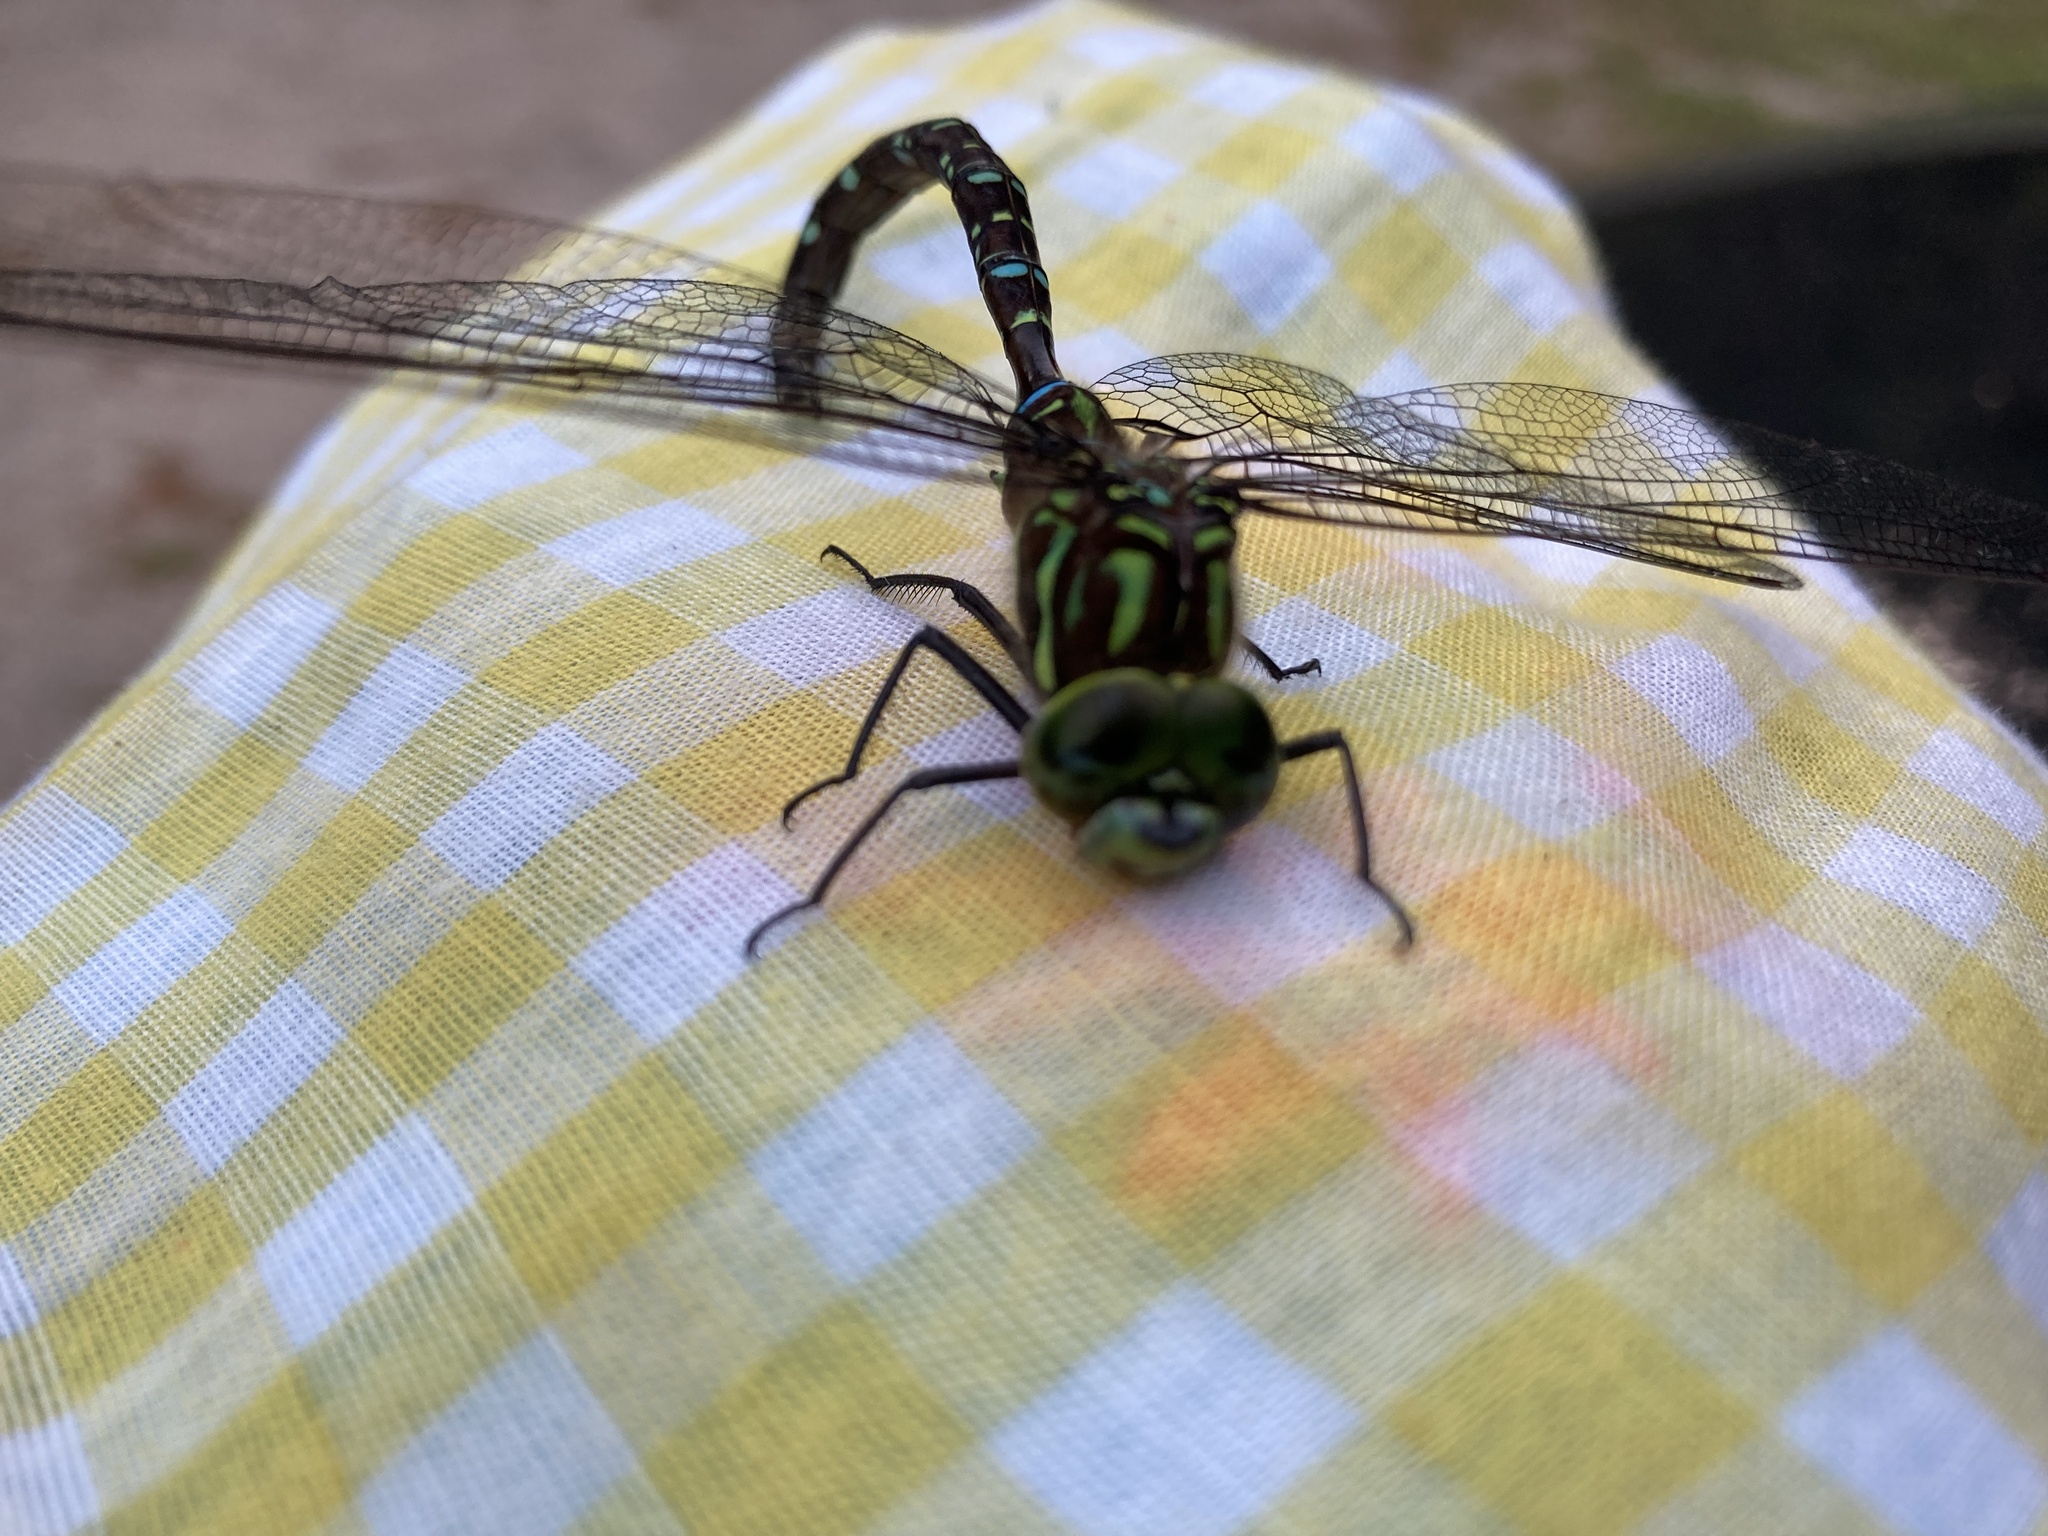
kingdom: Animalia
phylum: Arthropoda
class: Insecta
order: Odonata
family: Aeshnidae
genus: Aeshna
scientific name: Aeshna umbrosa
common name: Shadow darner
